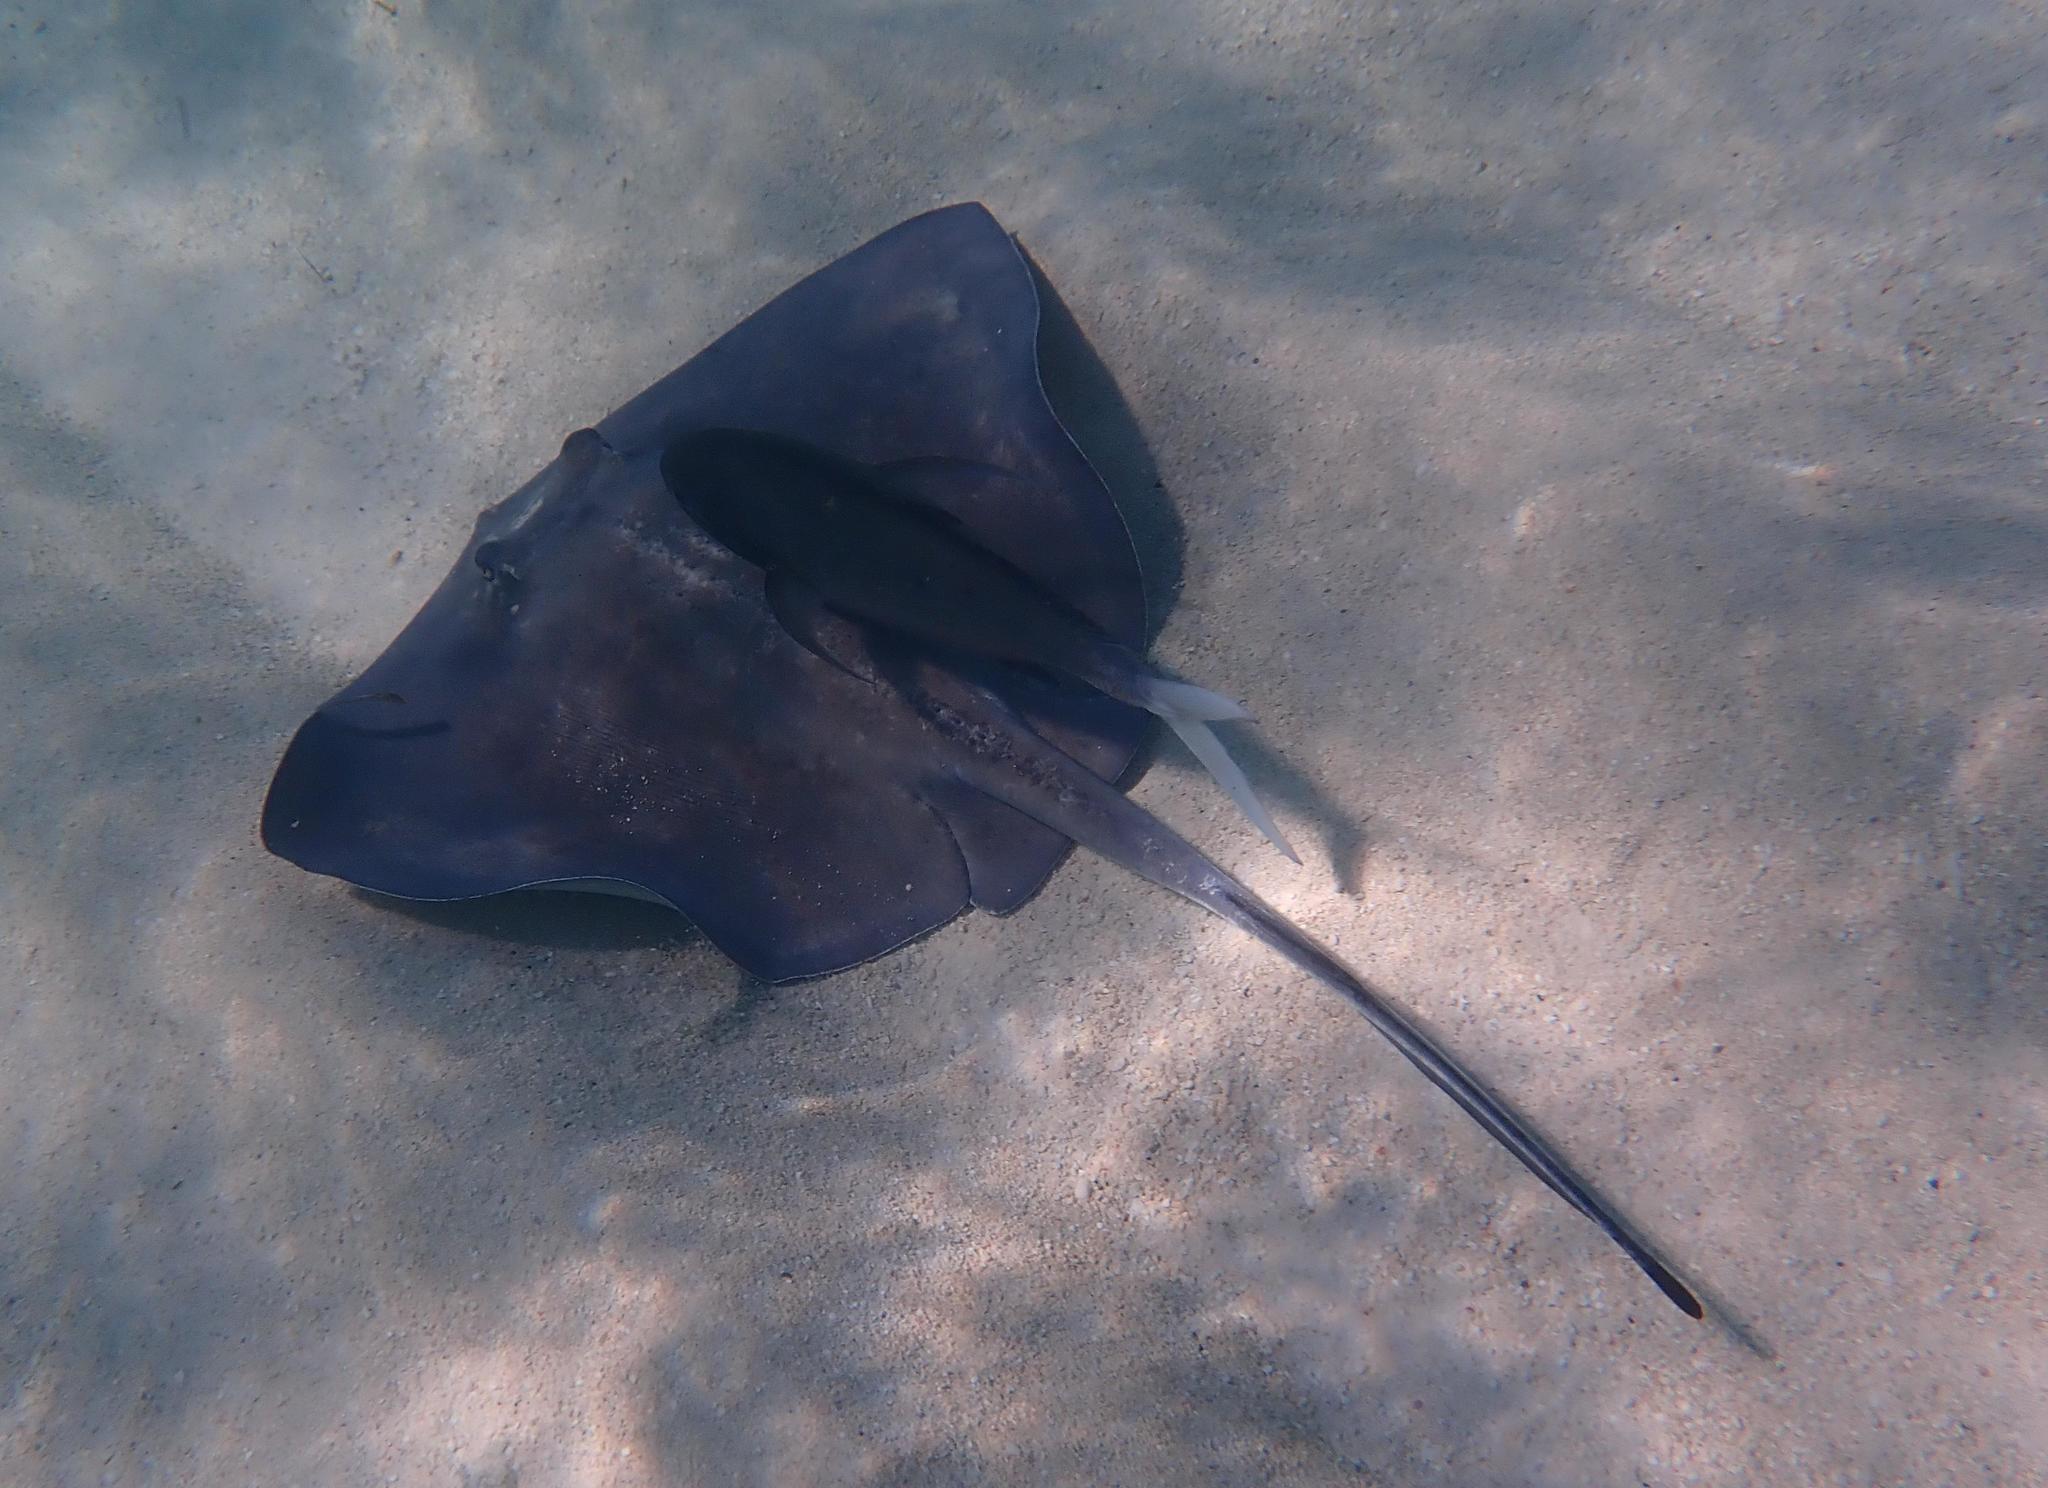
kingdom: Animalia
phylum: Chordata
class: Elasmobranchii
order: Myliobatiformes
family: Dasyatidae
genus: Hypanus
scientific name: Hypanus americanus
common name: Southern stingray
